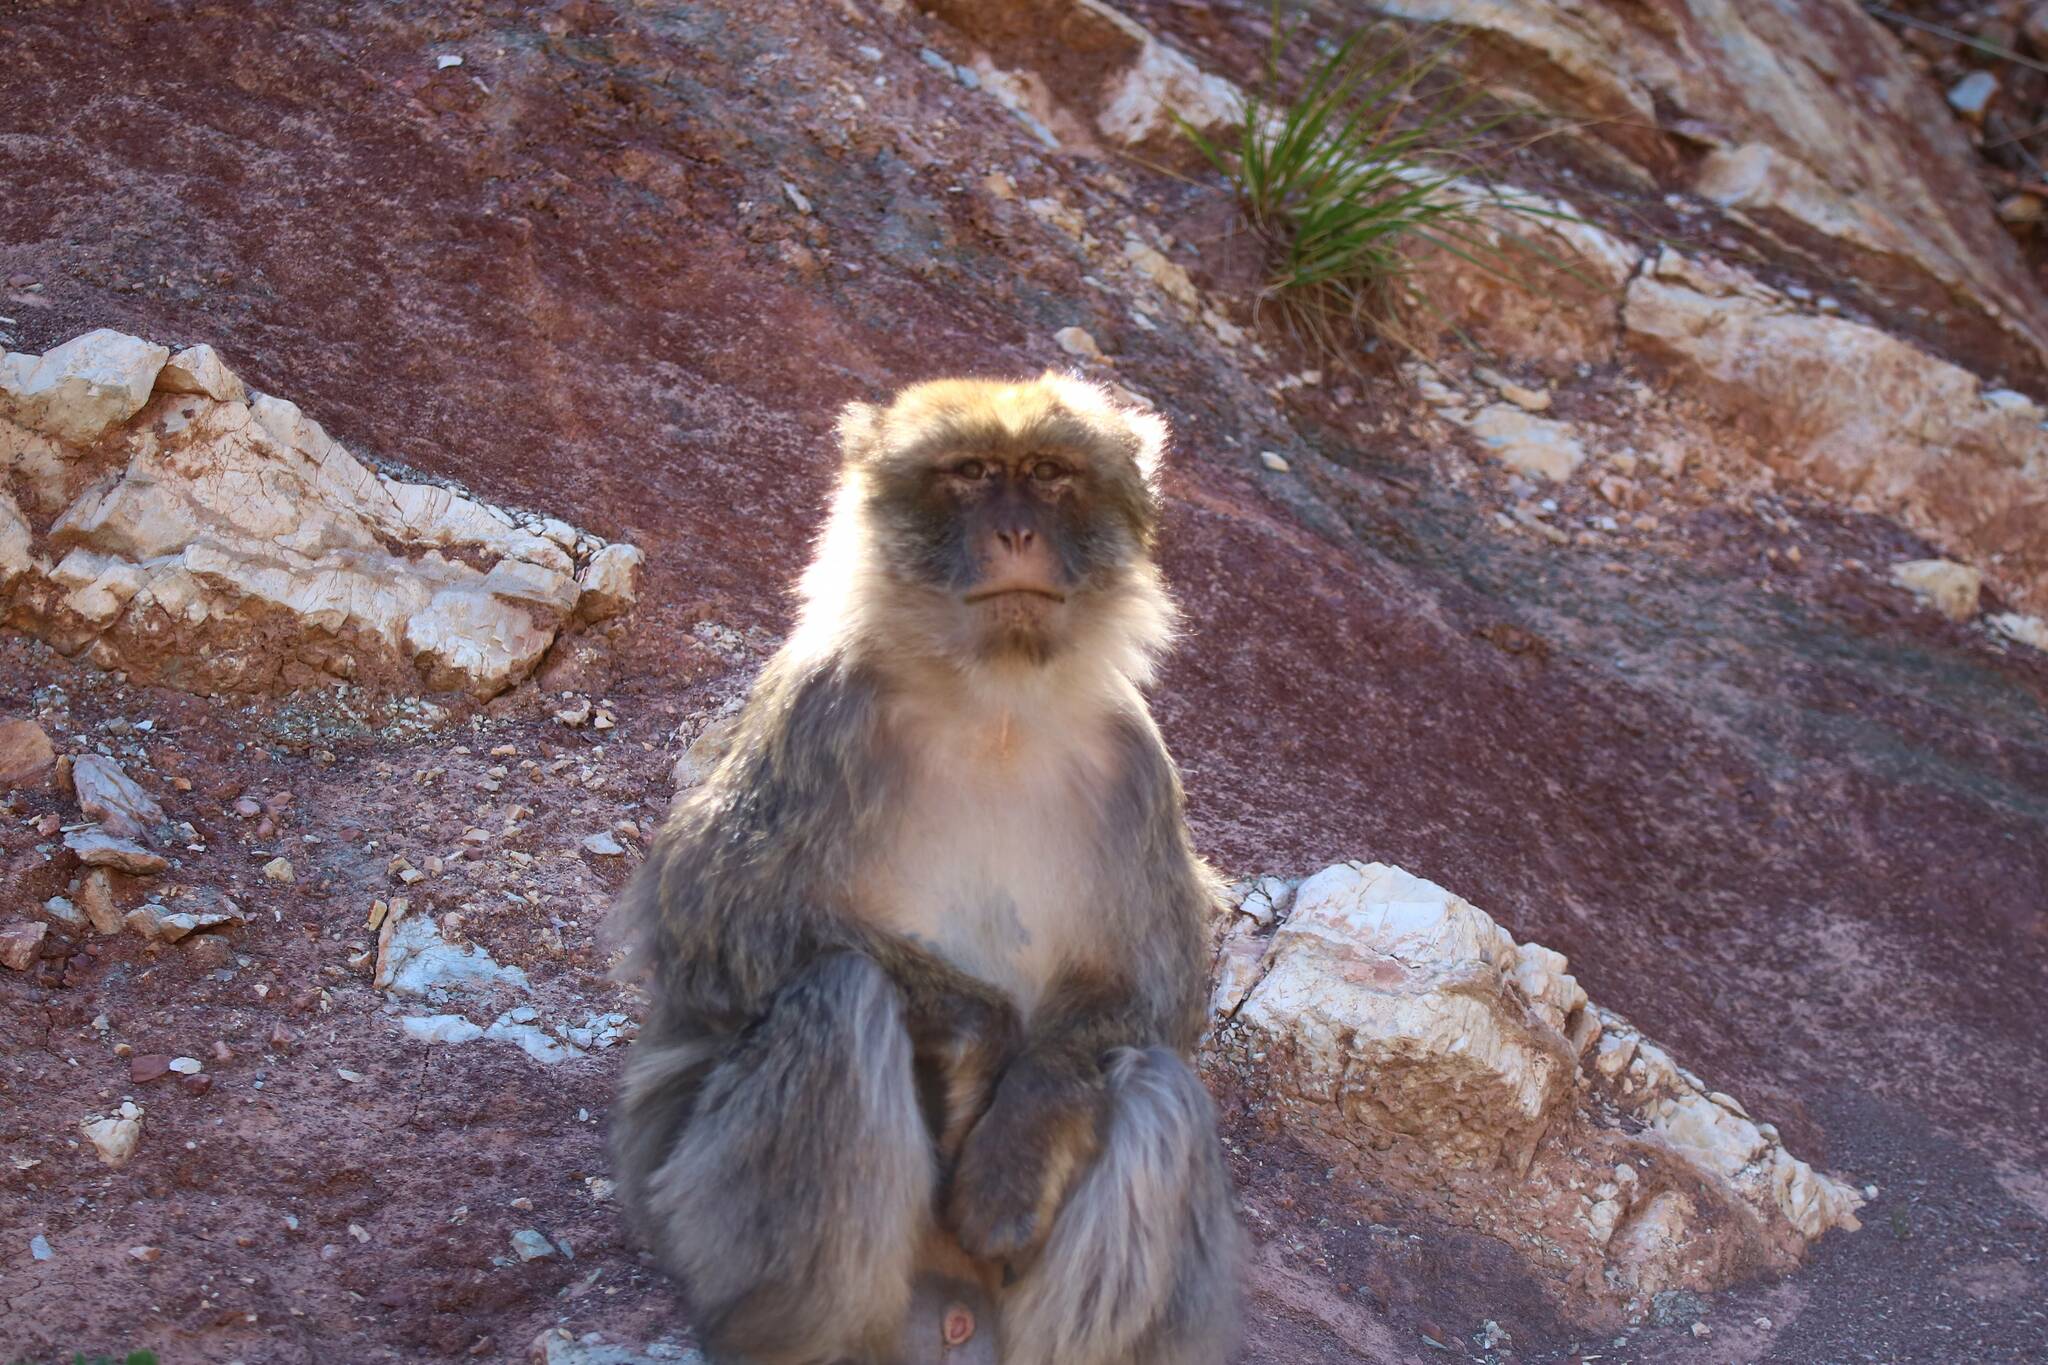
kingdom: Animalia
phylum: Chordata
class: Mammalia
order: Primates
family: Cercopithecidae
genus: Macaca
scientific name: Macaca sylvanus
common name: Barbary macaque
